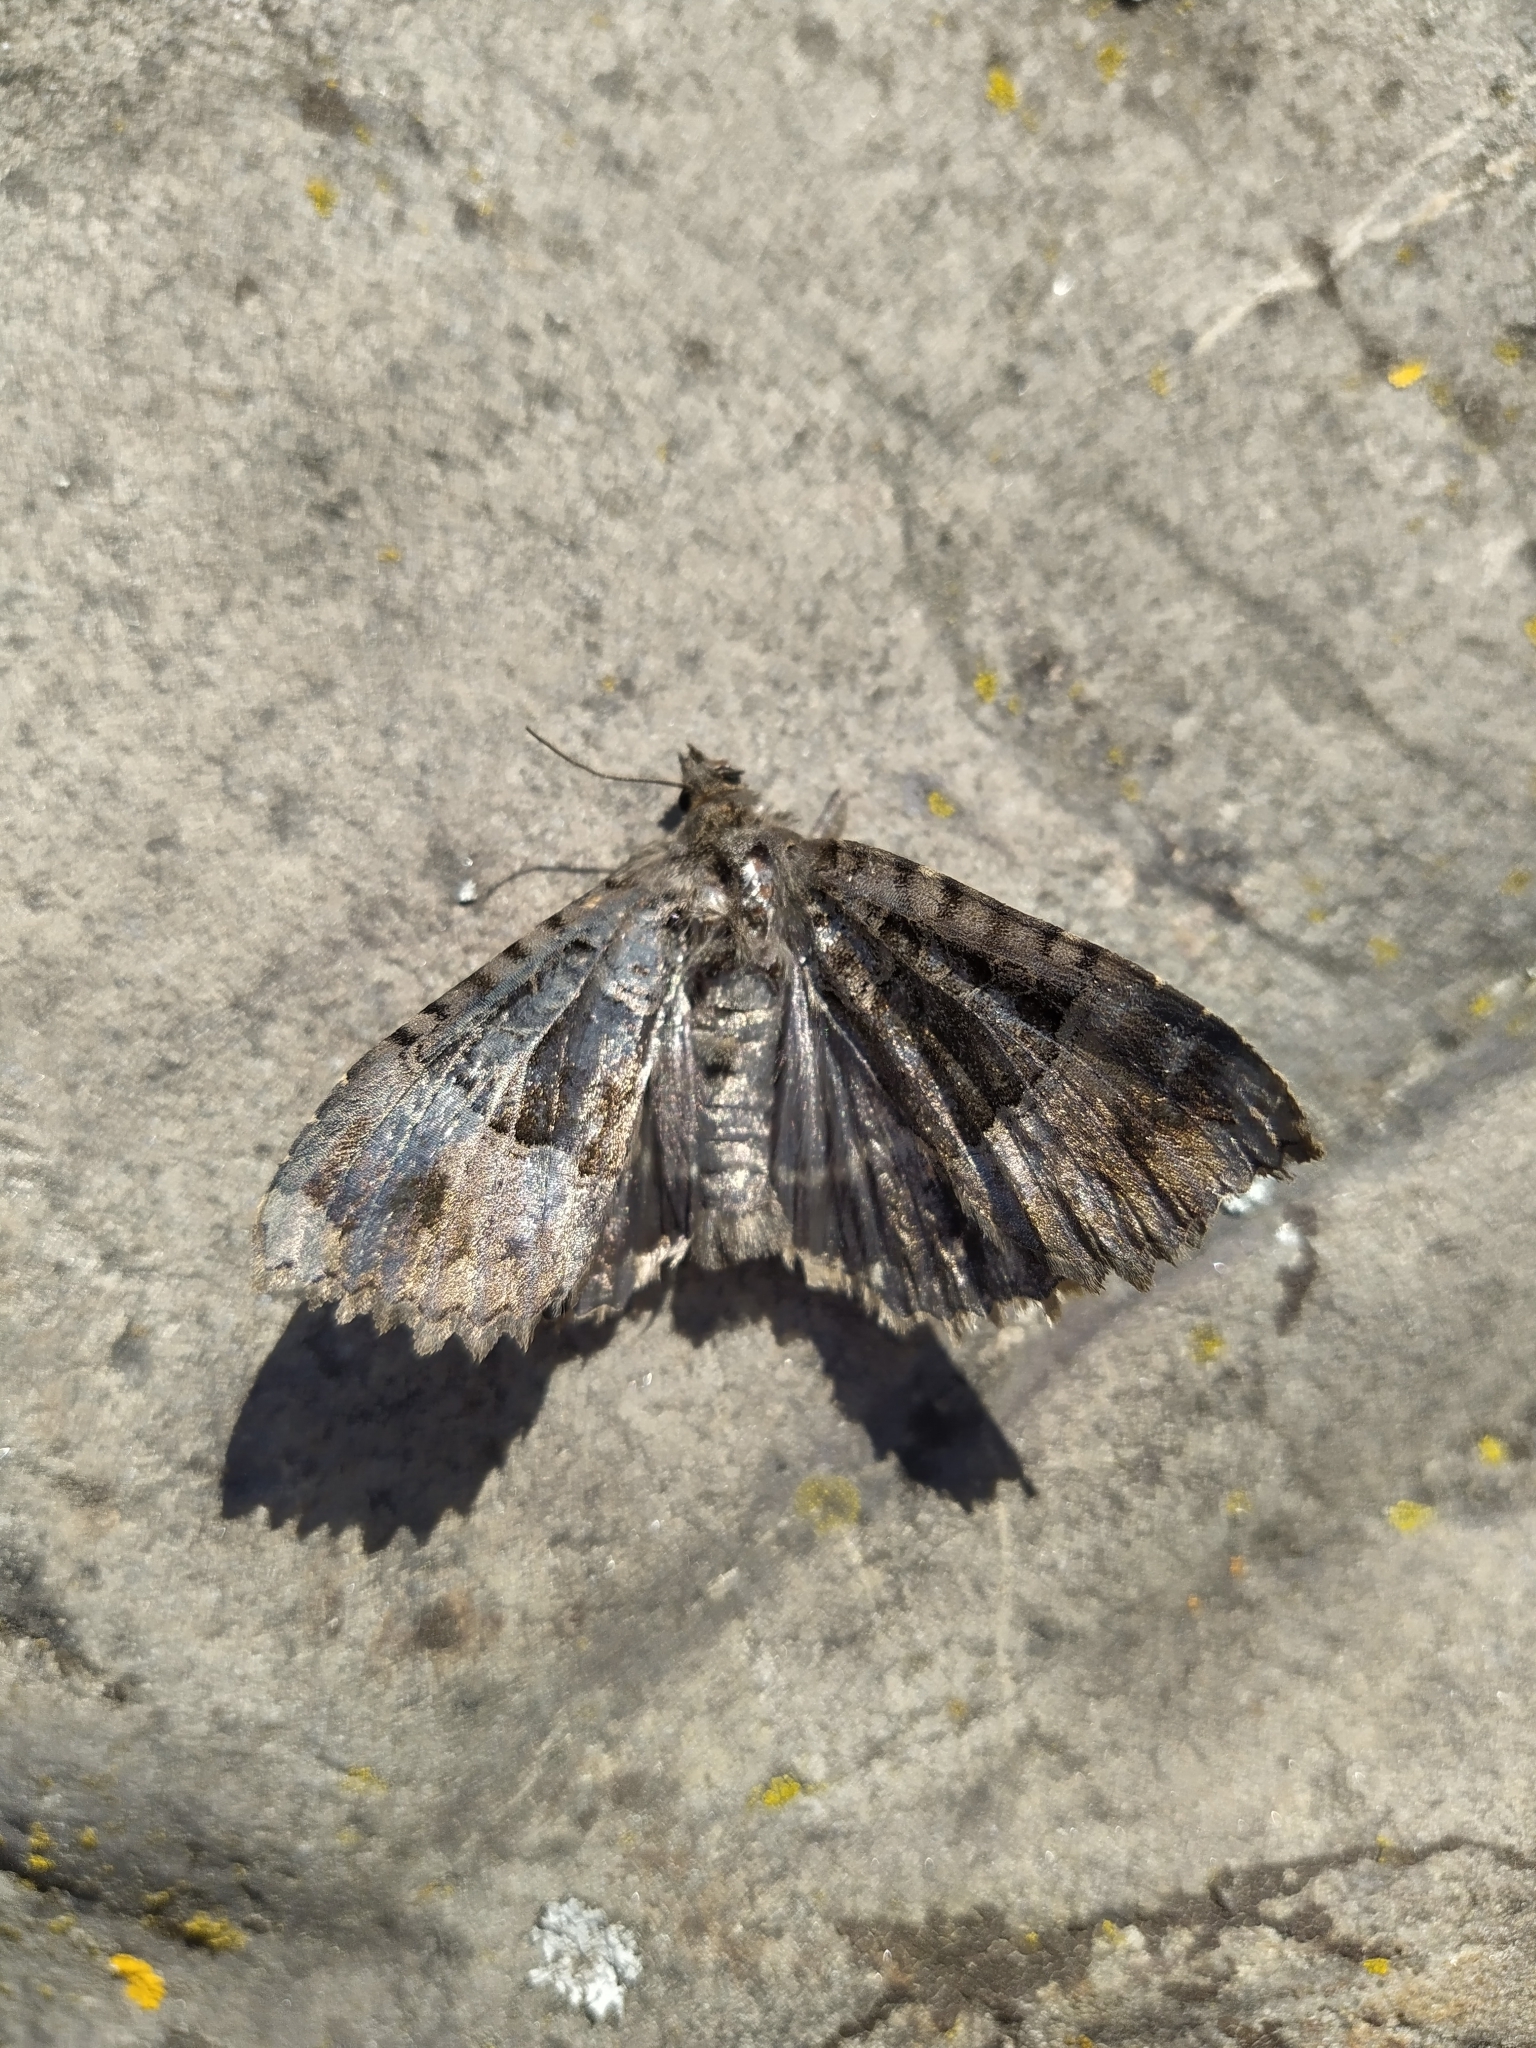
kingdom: Animalia
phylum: Arthropoda
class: Insecta
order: Lepidoptera
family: Noctuidae
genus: Mormo
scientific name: Mormo maura
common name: Old lady
